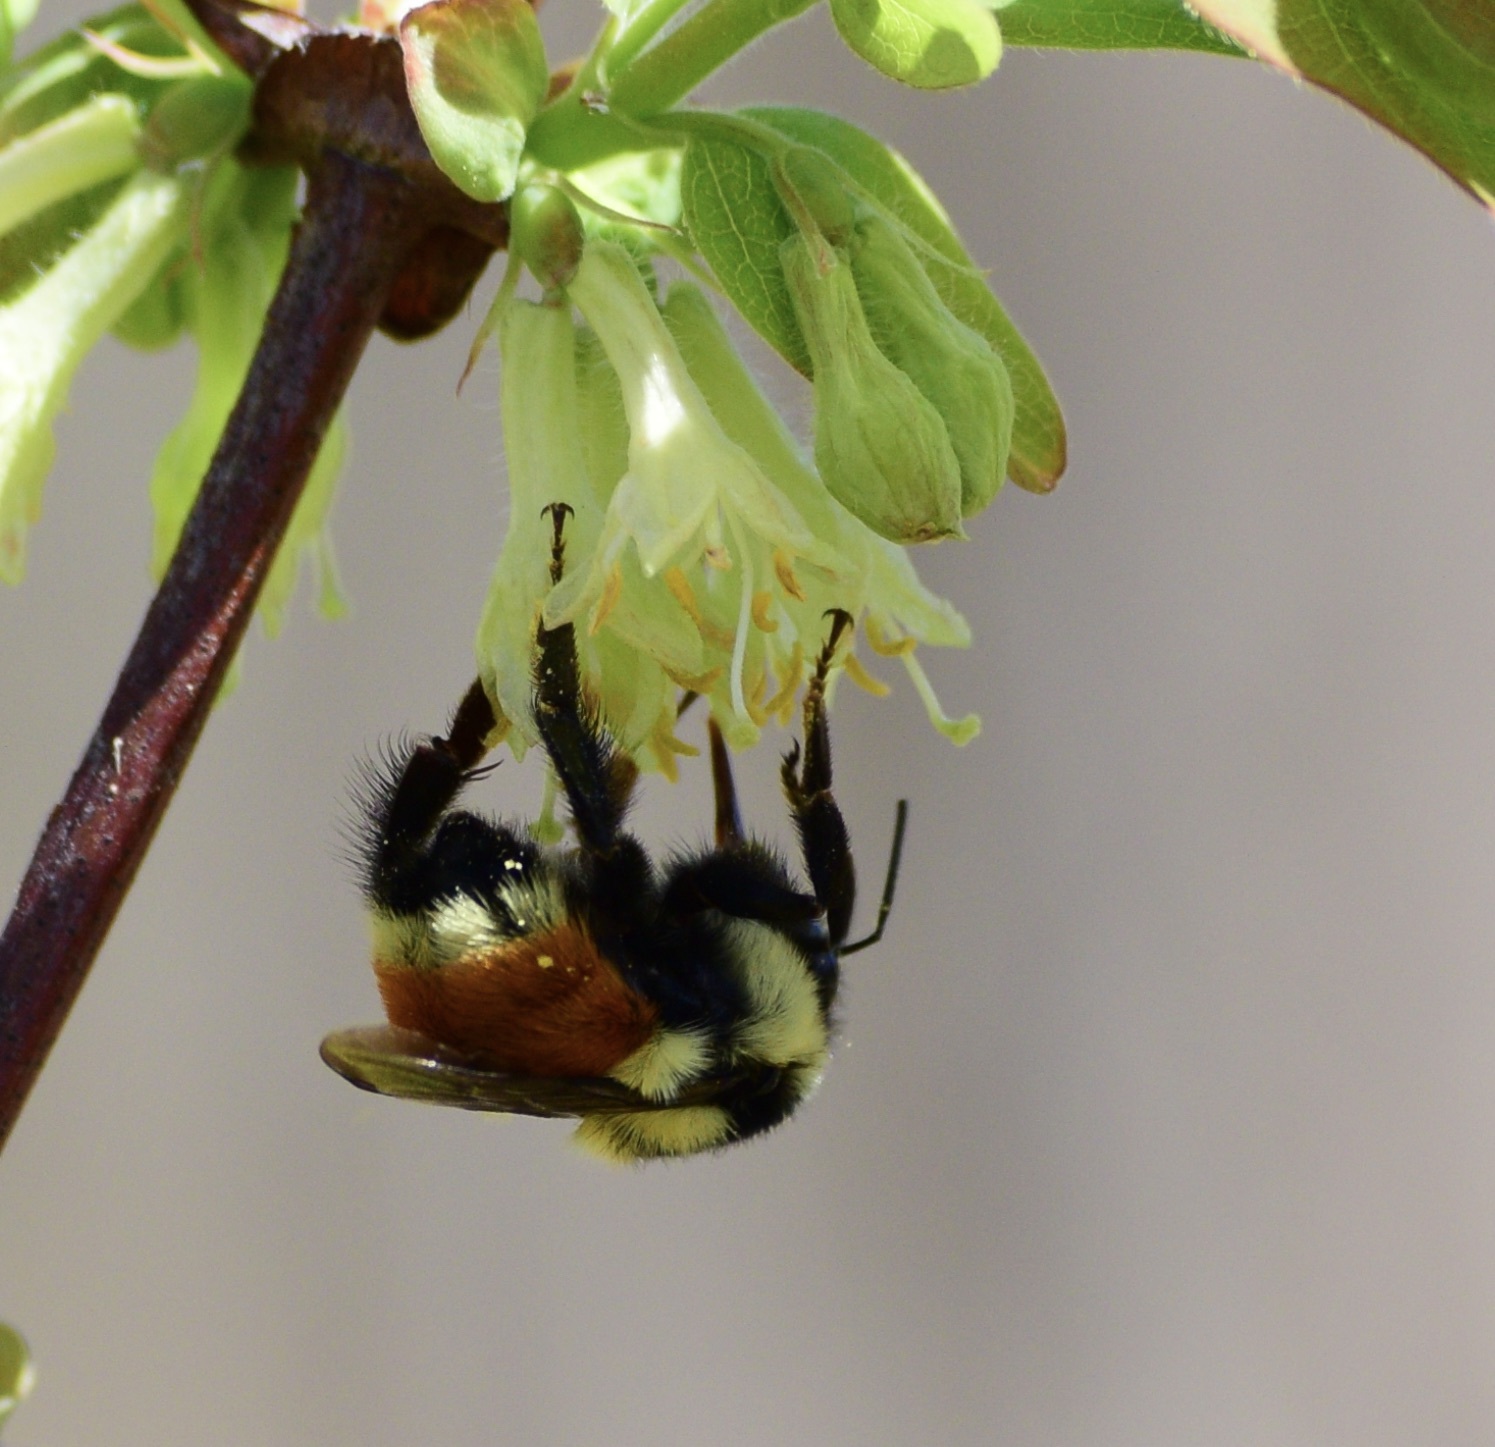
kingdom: Animalia
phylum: Arthropoda
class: Insecta
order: Hymenoptera
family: Apidae
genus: Bombus
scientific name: Bombus ternarius
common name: Tri-colored bumble bee
